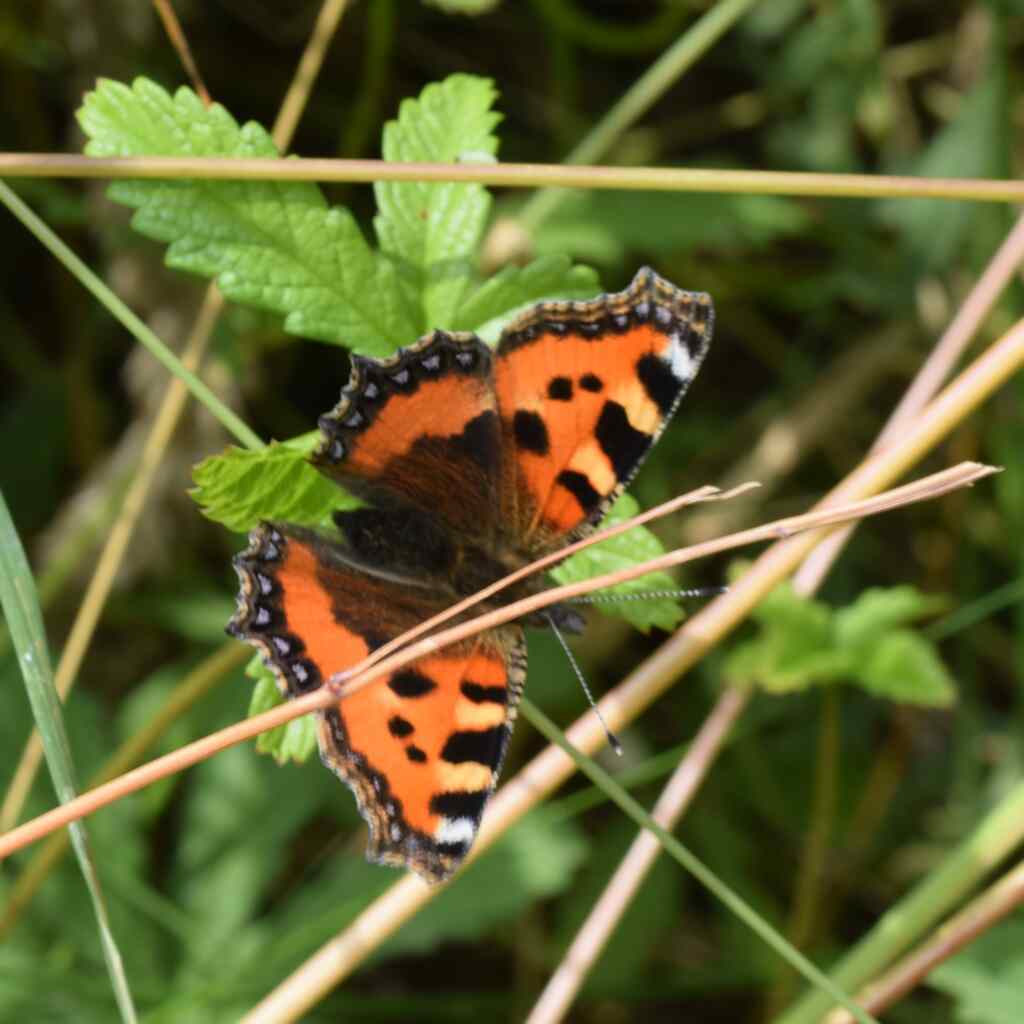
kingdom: Animalia
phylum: Arthropoda
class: Insecta
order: Lepidoptera
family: Nymphalidae
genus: Aglais
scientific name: Aglais urticae
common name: Small tortoiseshell
